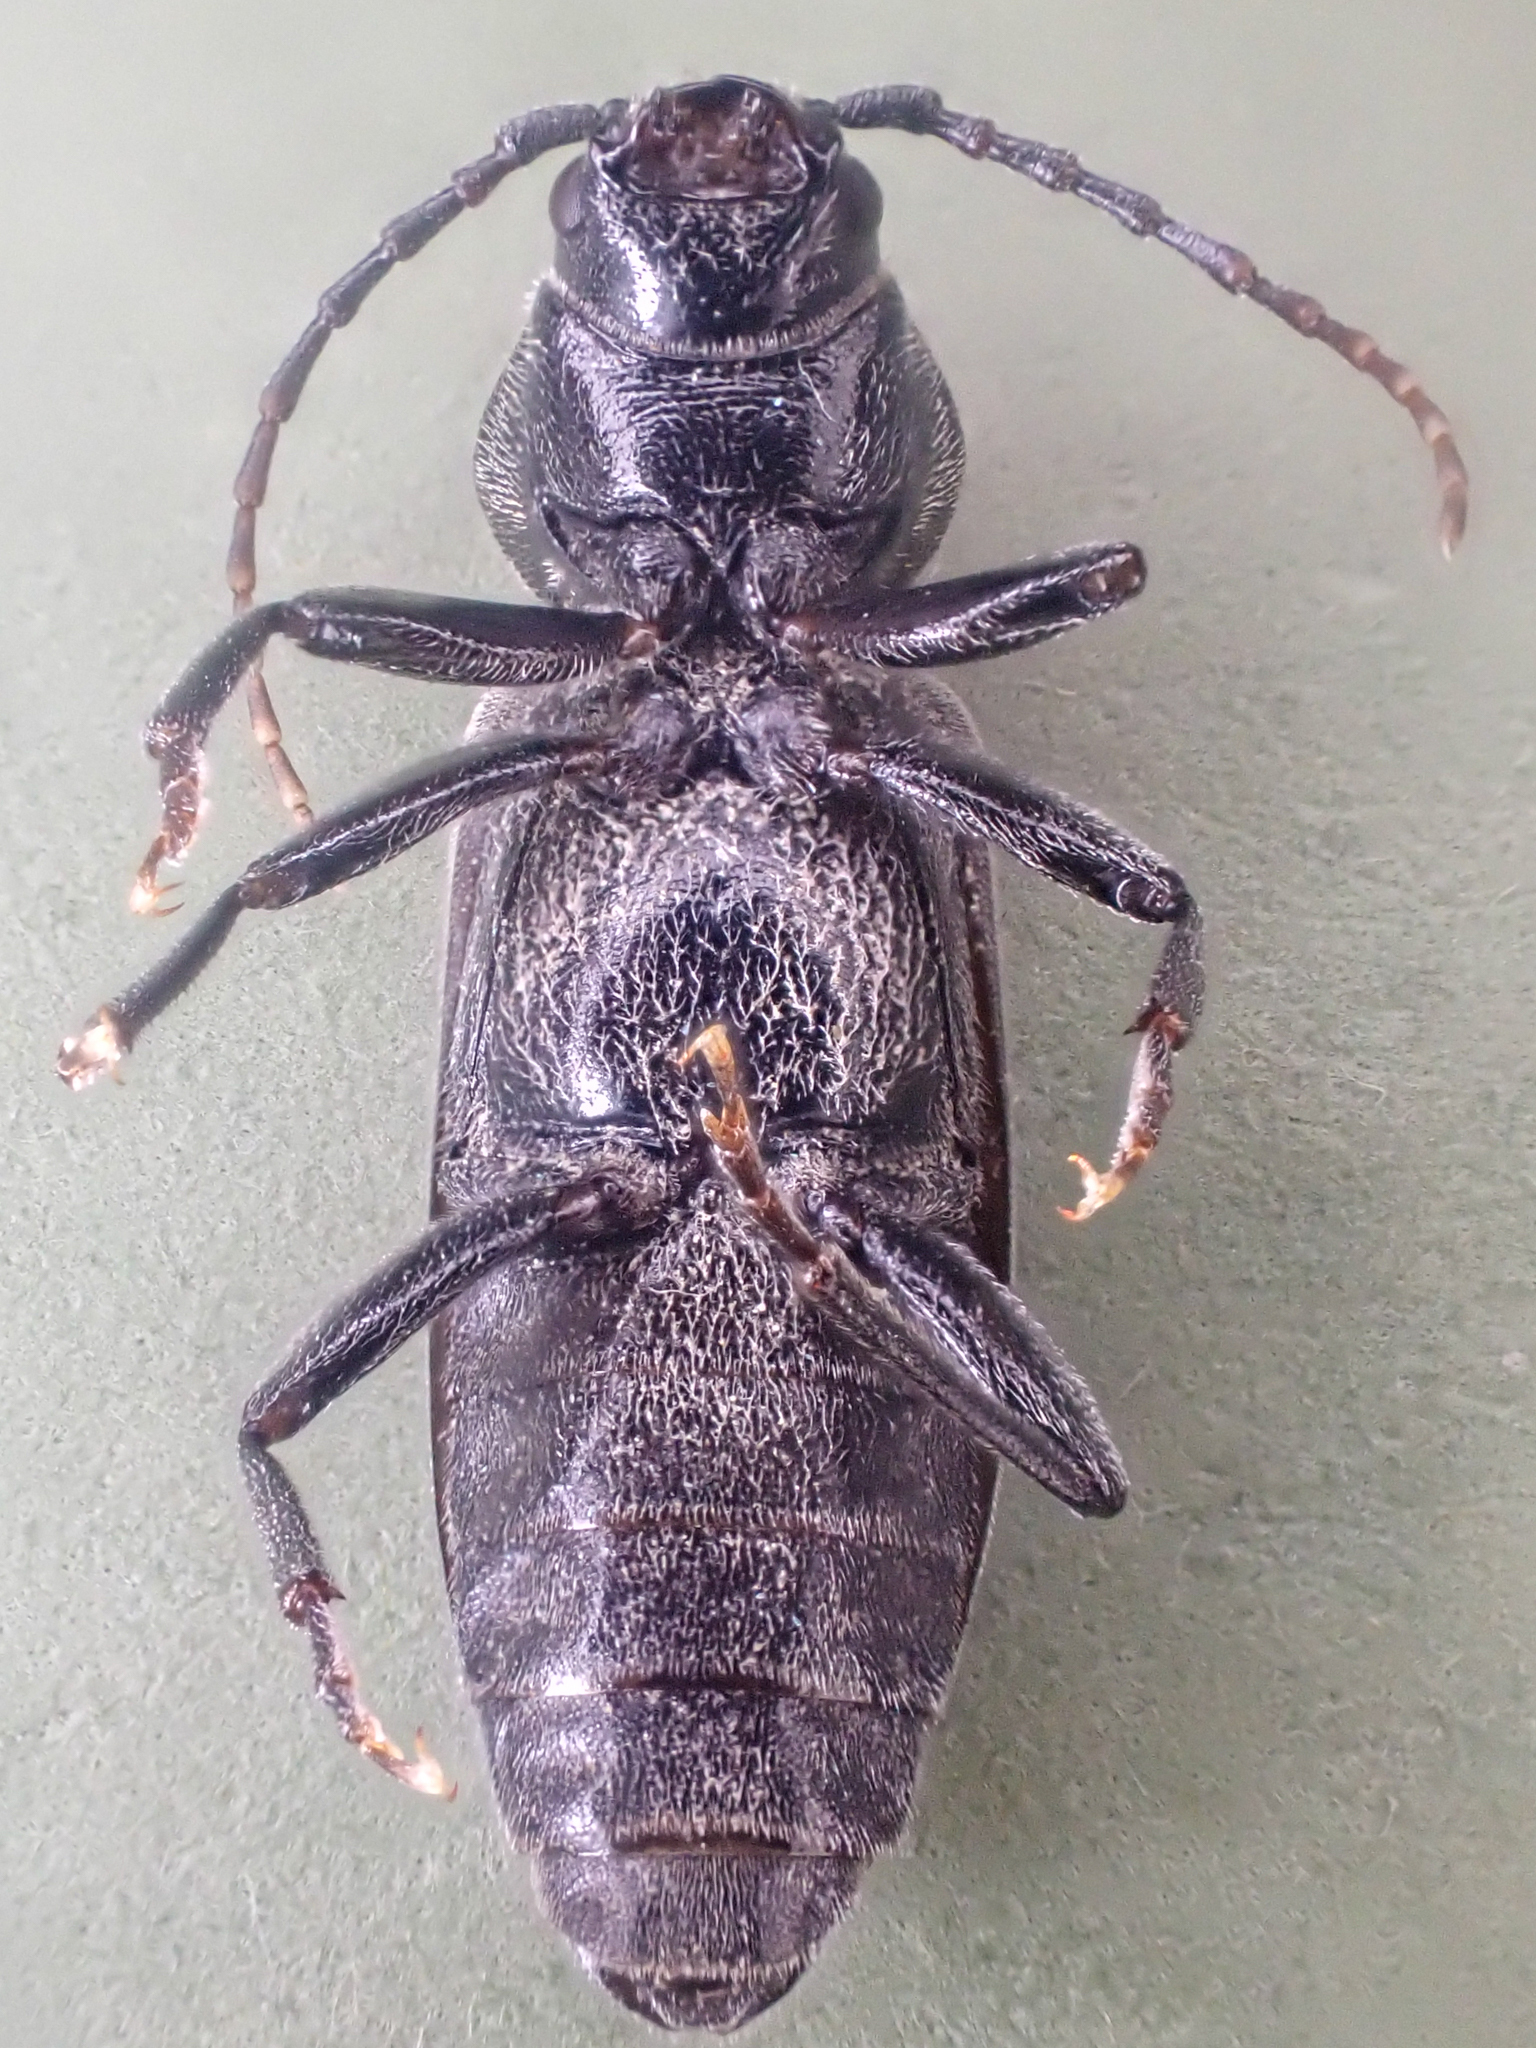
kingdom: Animalia
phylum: Arthropoda
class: Insecta
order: Coleoptera
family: Cerambycidae
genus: Asemum
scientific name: Asemum striatum
